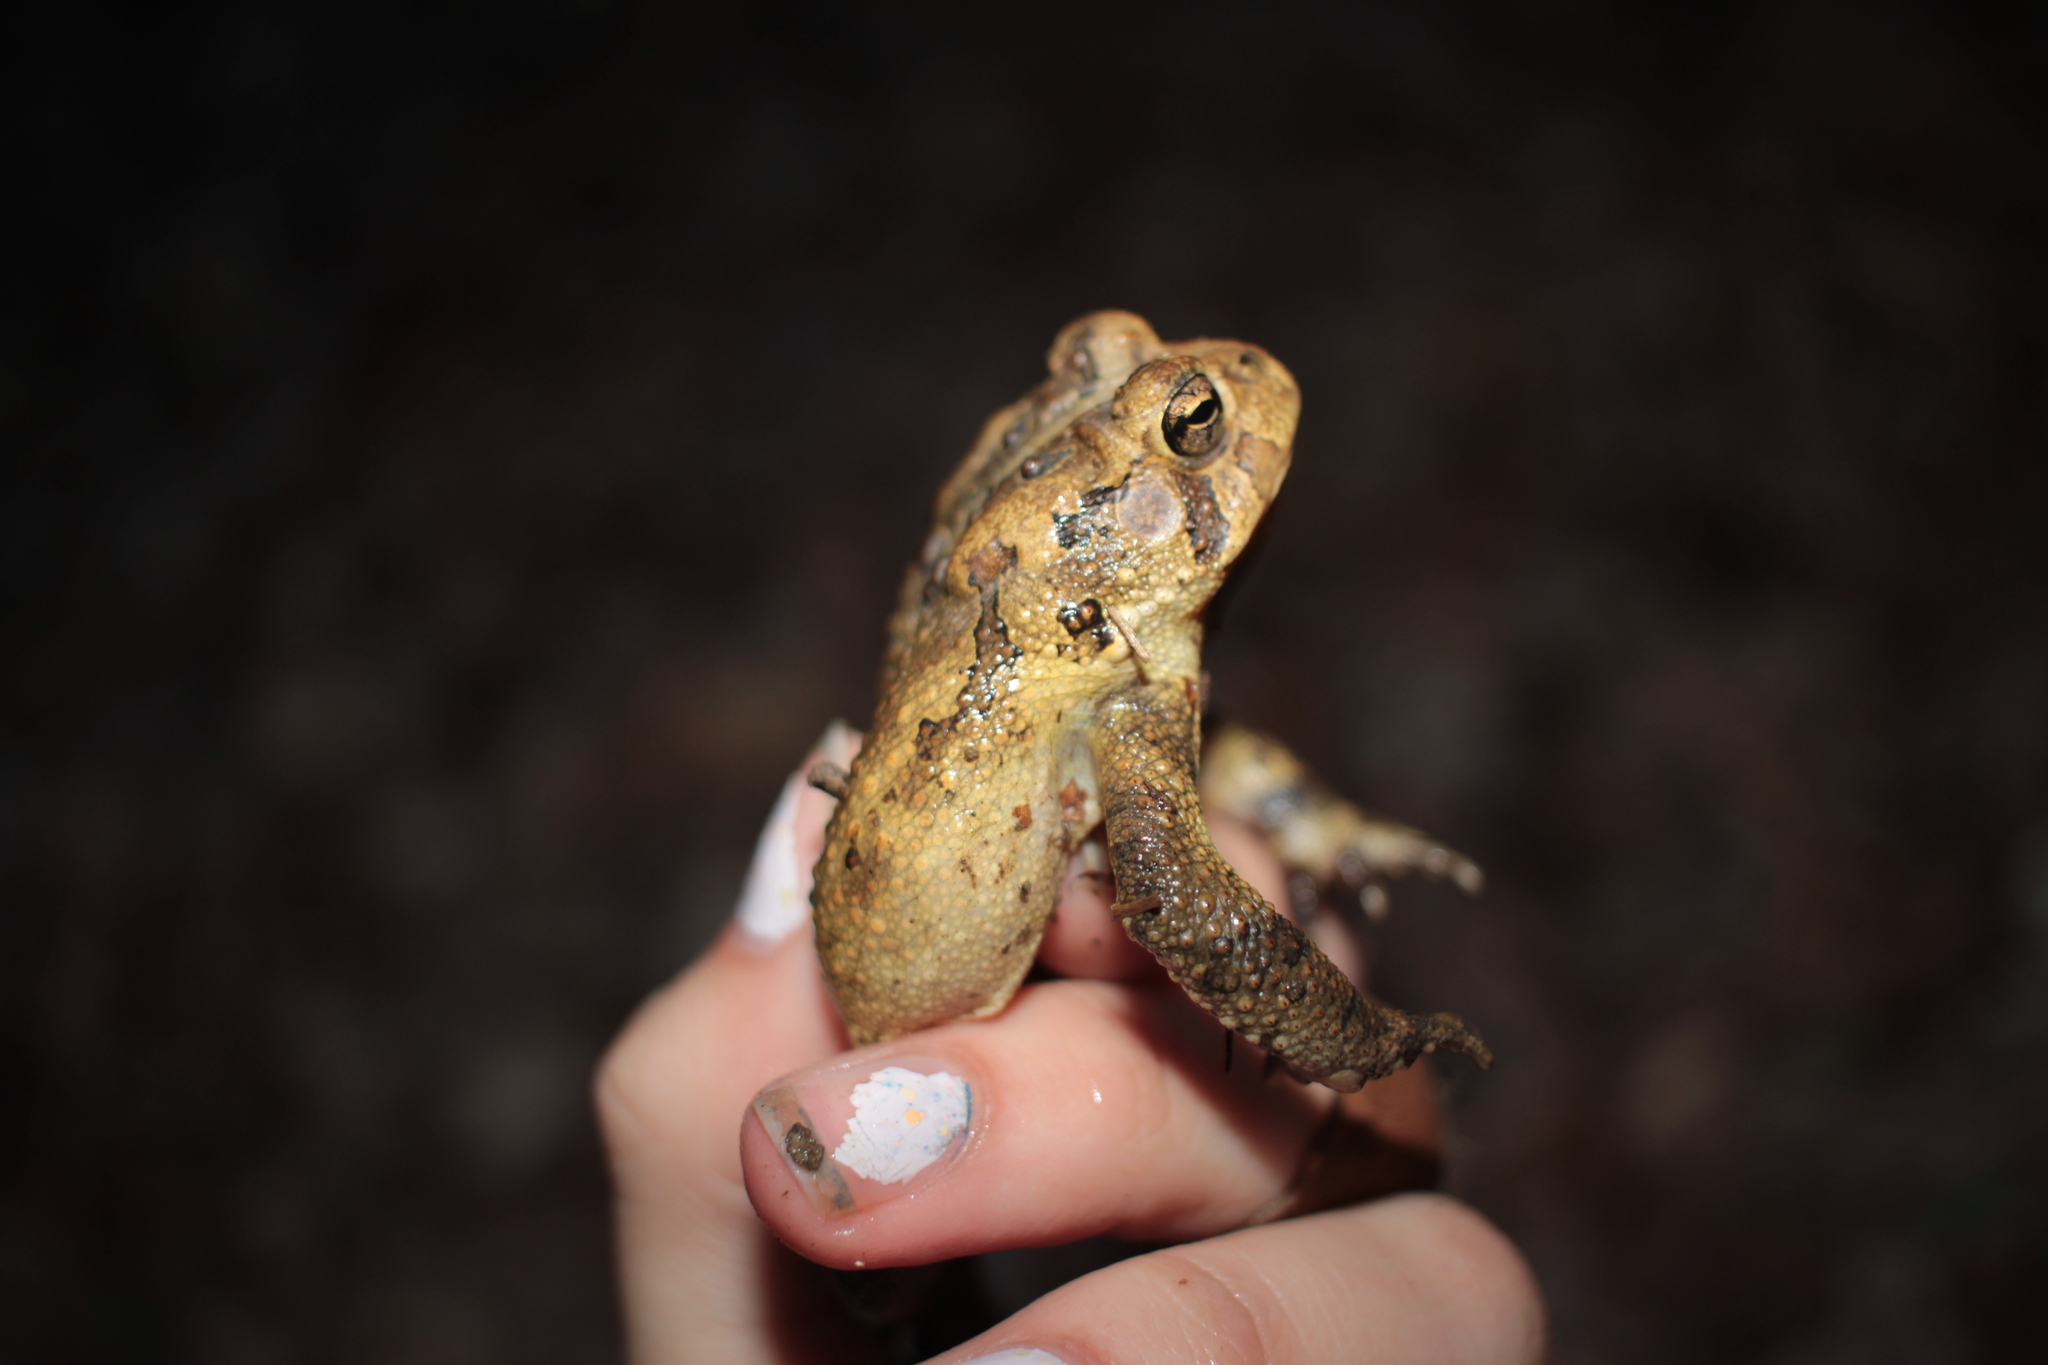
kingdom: Animalia
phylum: Chordata
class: Amphibia
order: Anura
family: Bufonidae
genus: Anaxyrus
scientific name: Anaxyrus americanus
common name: American toad
